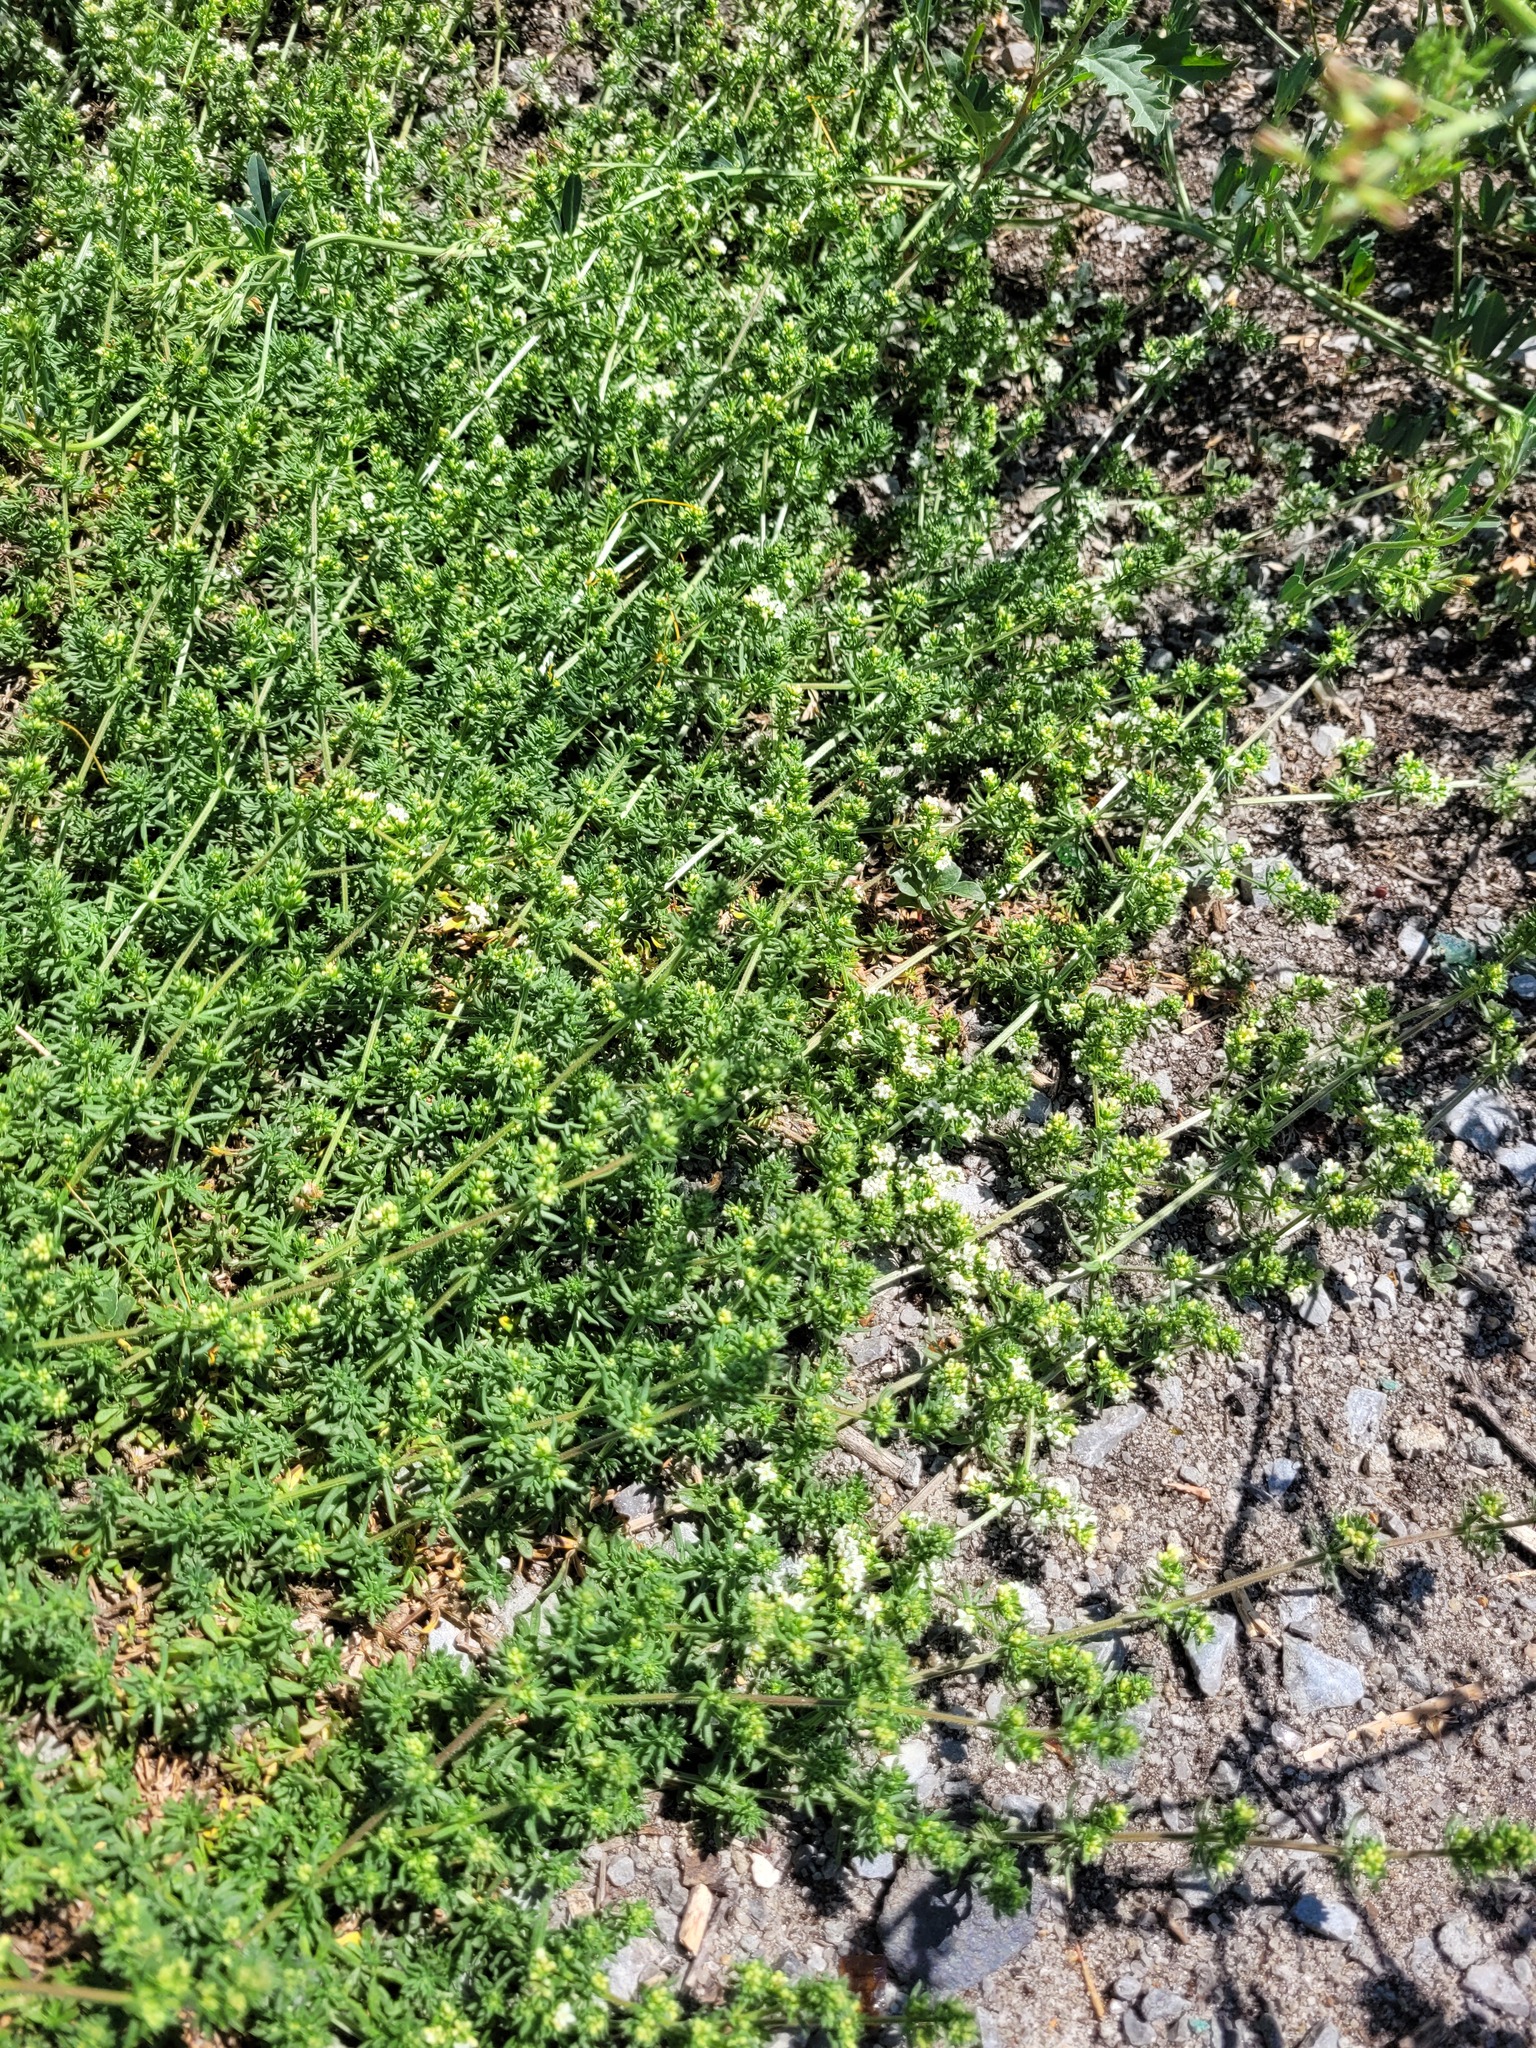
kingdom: Plantae
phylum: Tracheophyta
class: Magnoliopsida
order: Gentianales
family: Rubiaceae
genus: Galium
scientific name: Galium humifusum
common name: Spreading bedstraw
